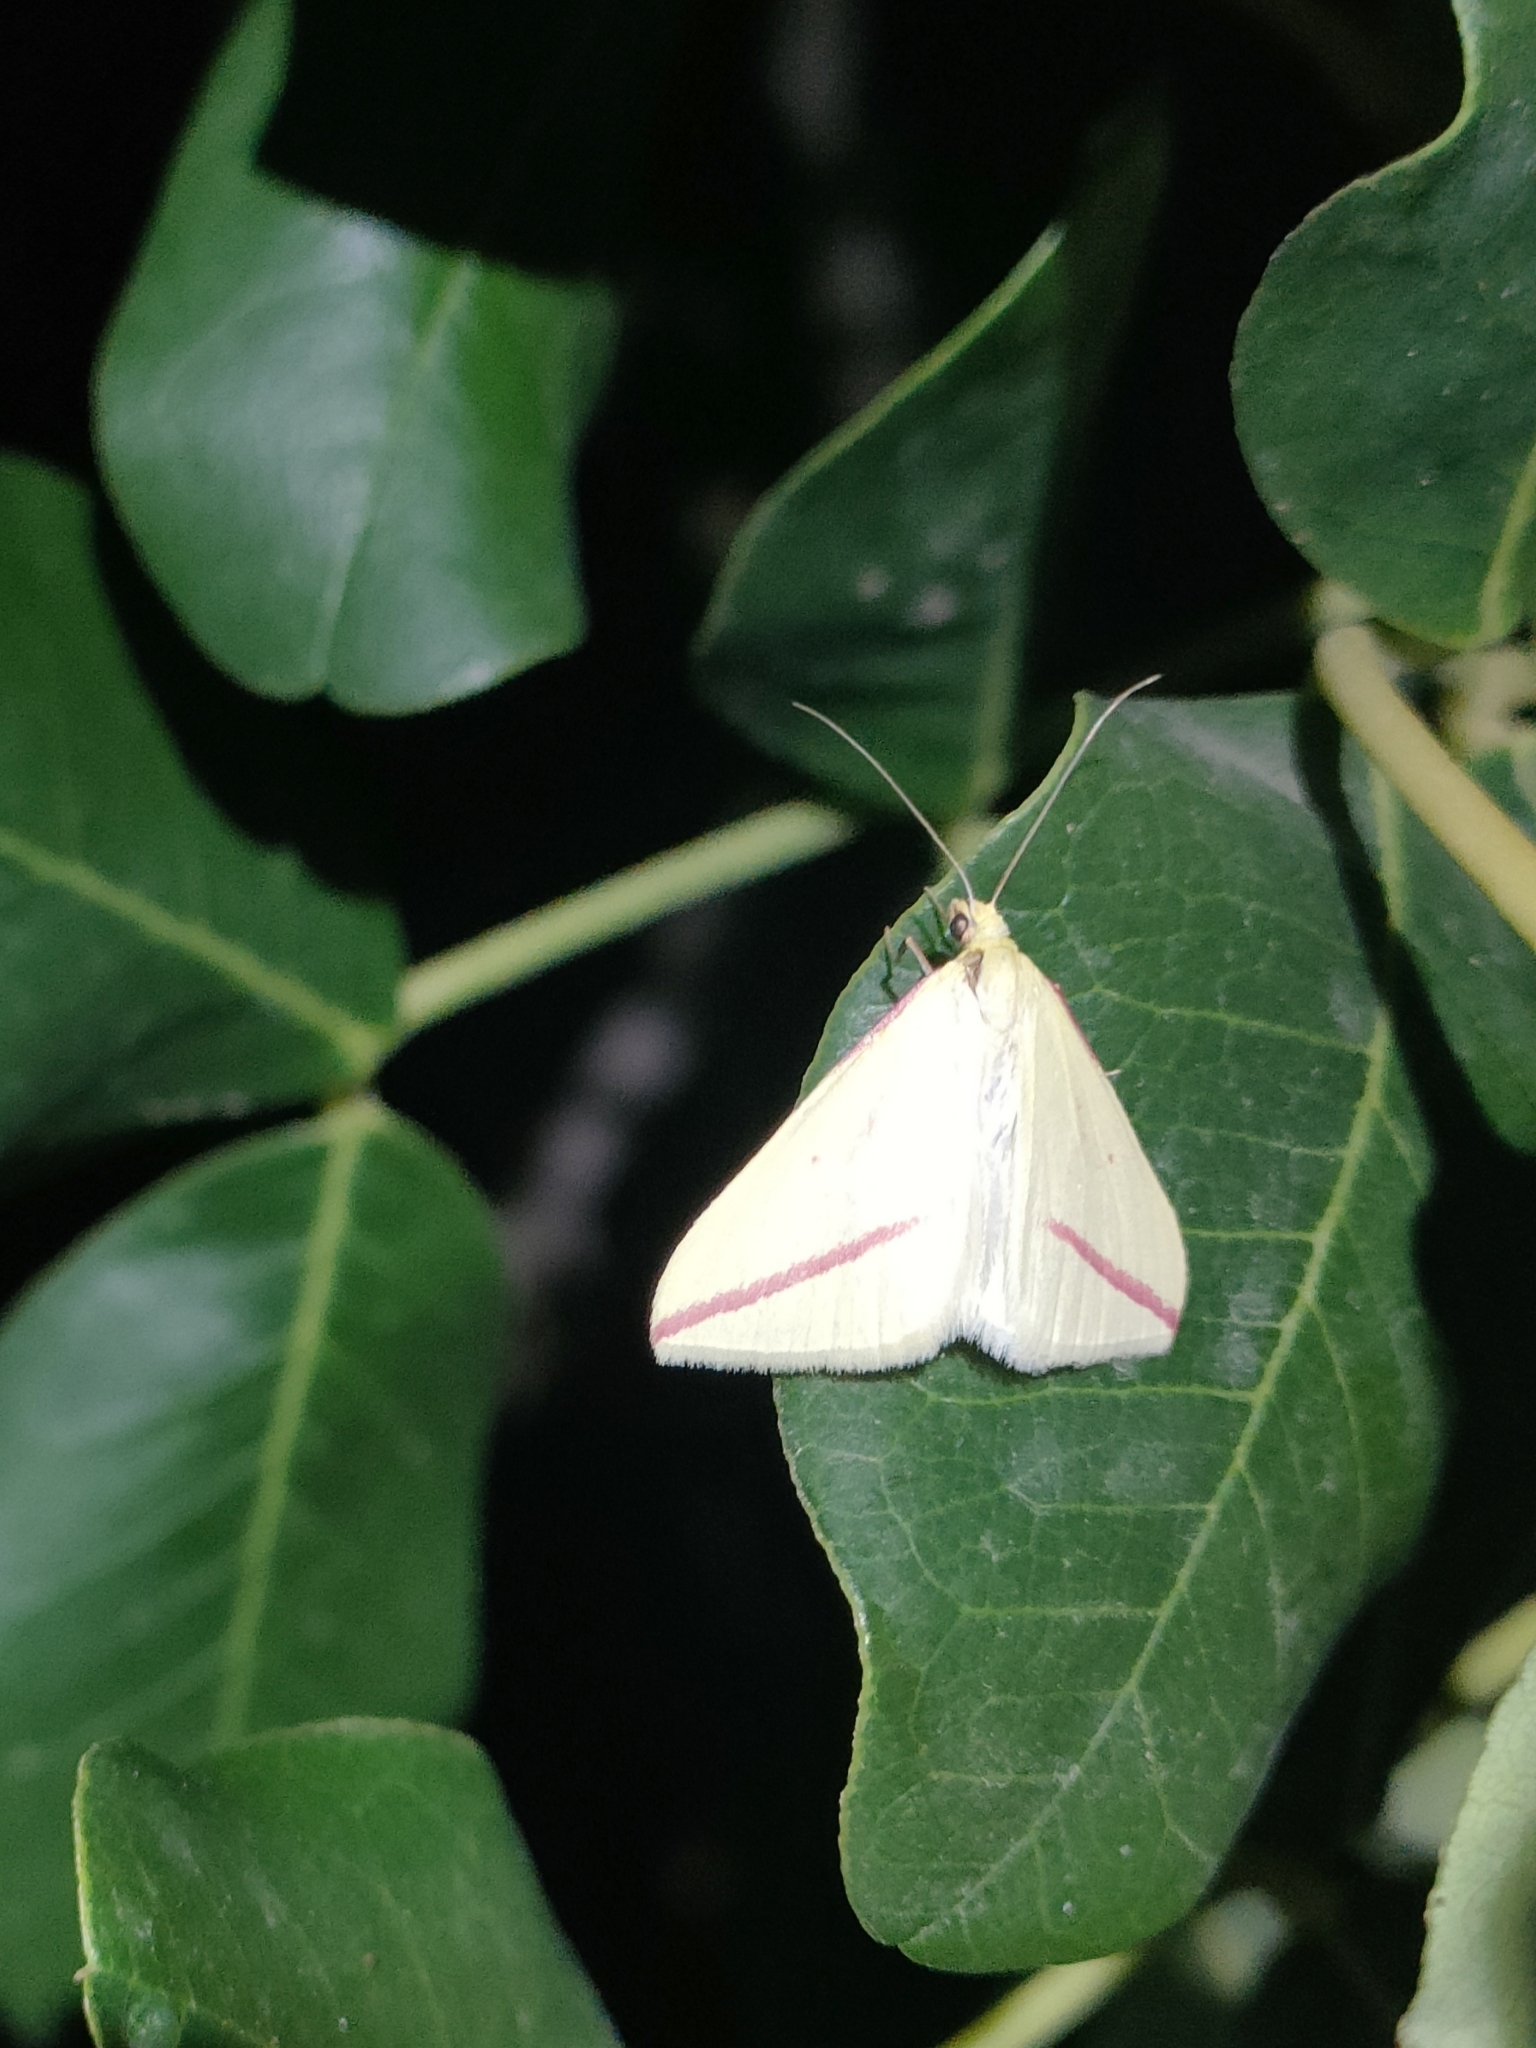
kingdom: Animalia
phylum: Arthropoda
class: Insecta
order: Lepidoptera
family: Geometridae
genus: Rhodometra
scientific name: Rhodometra sacraria
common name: Vestal
